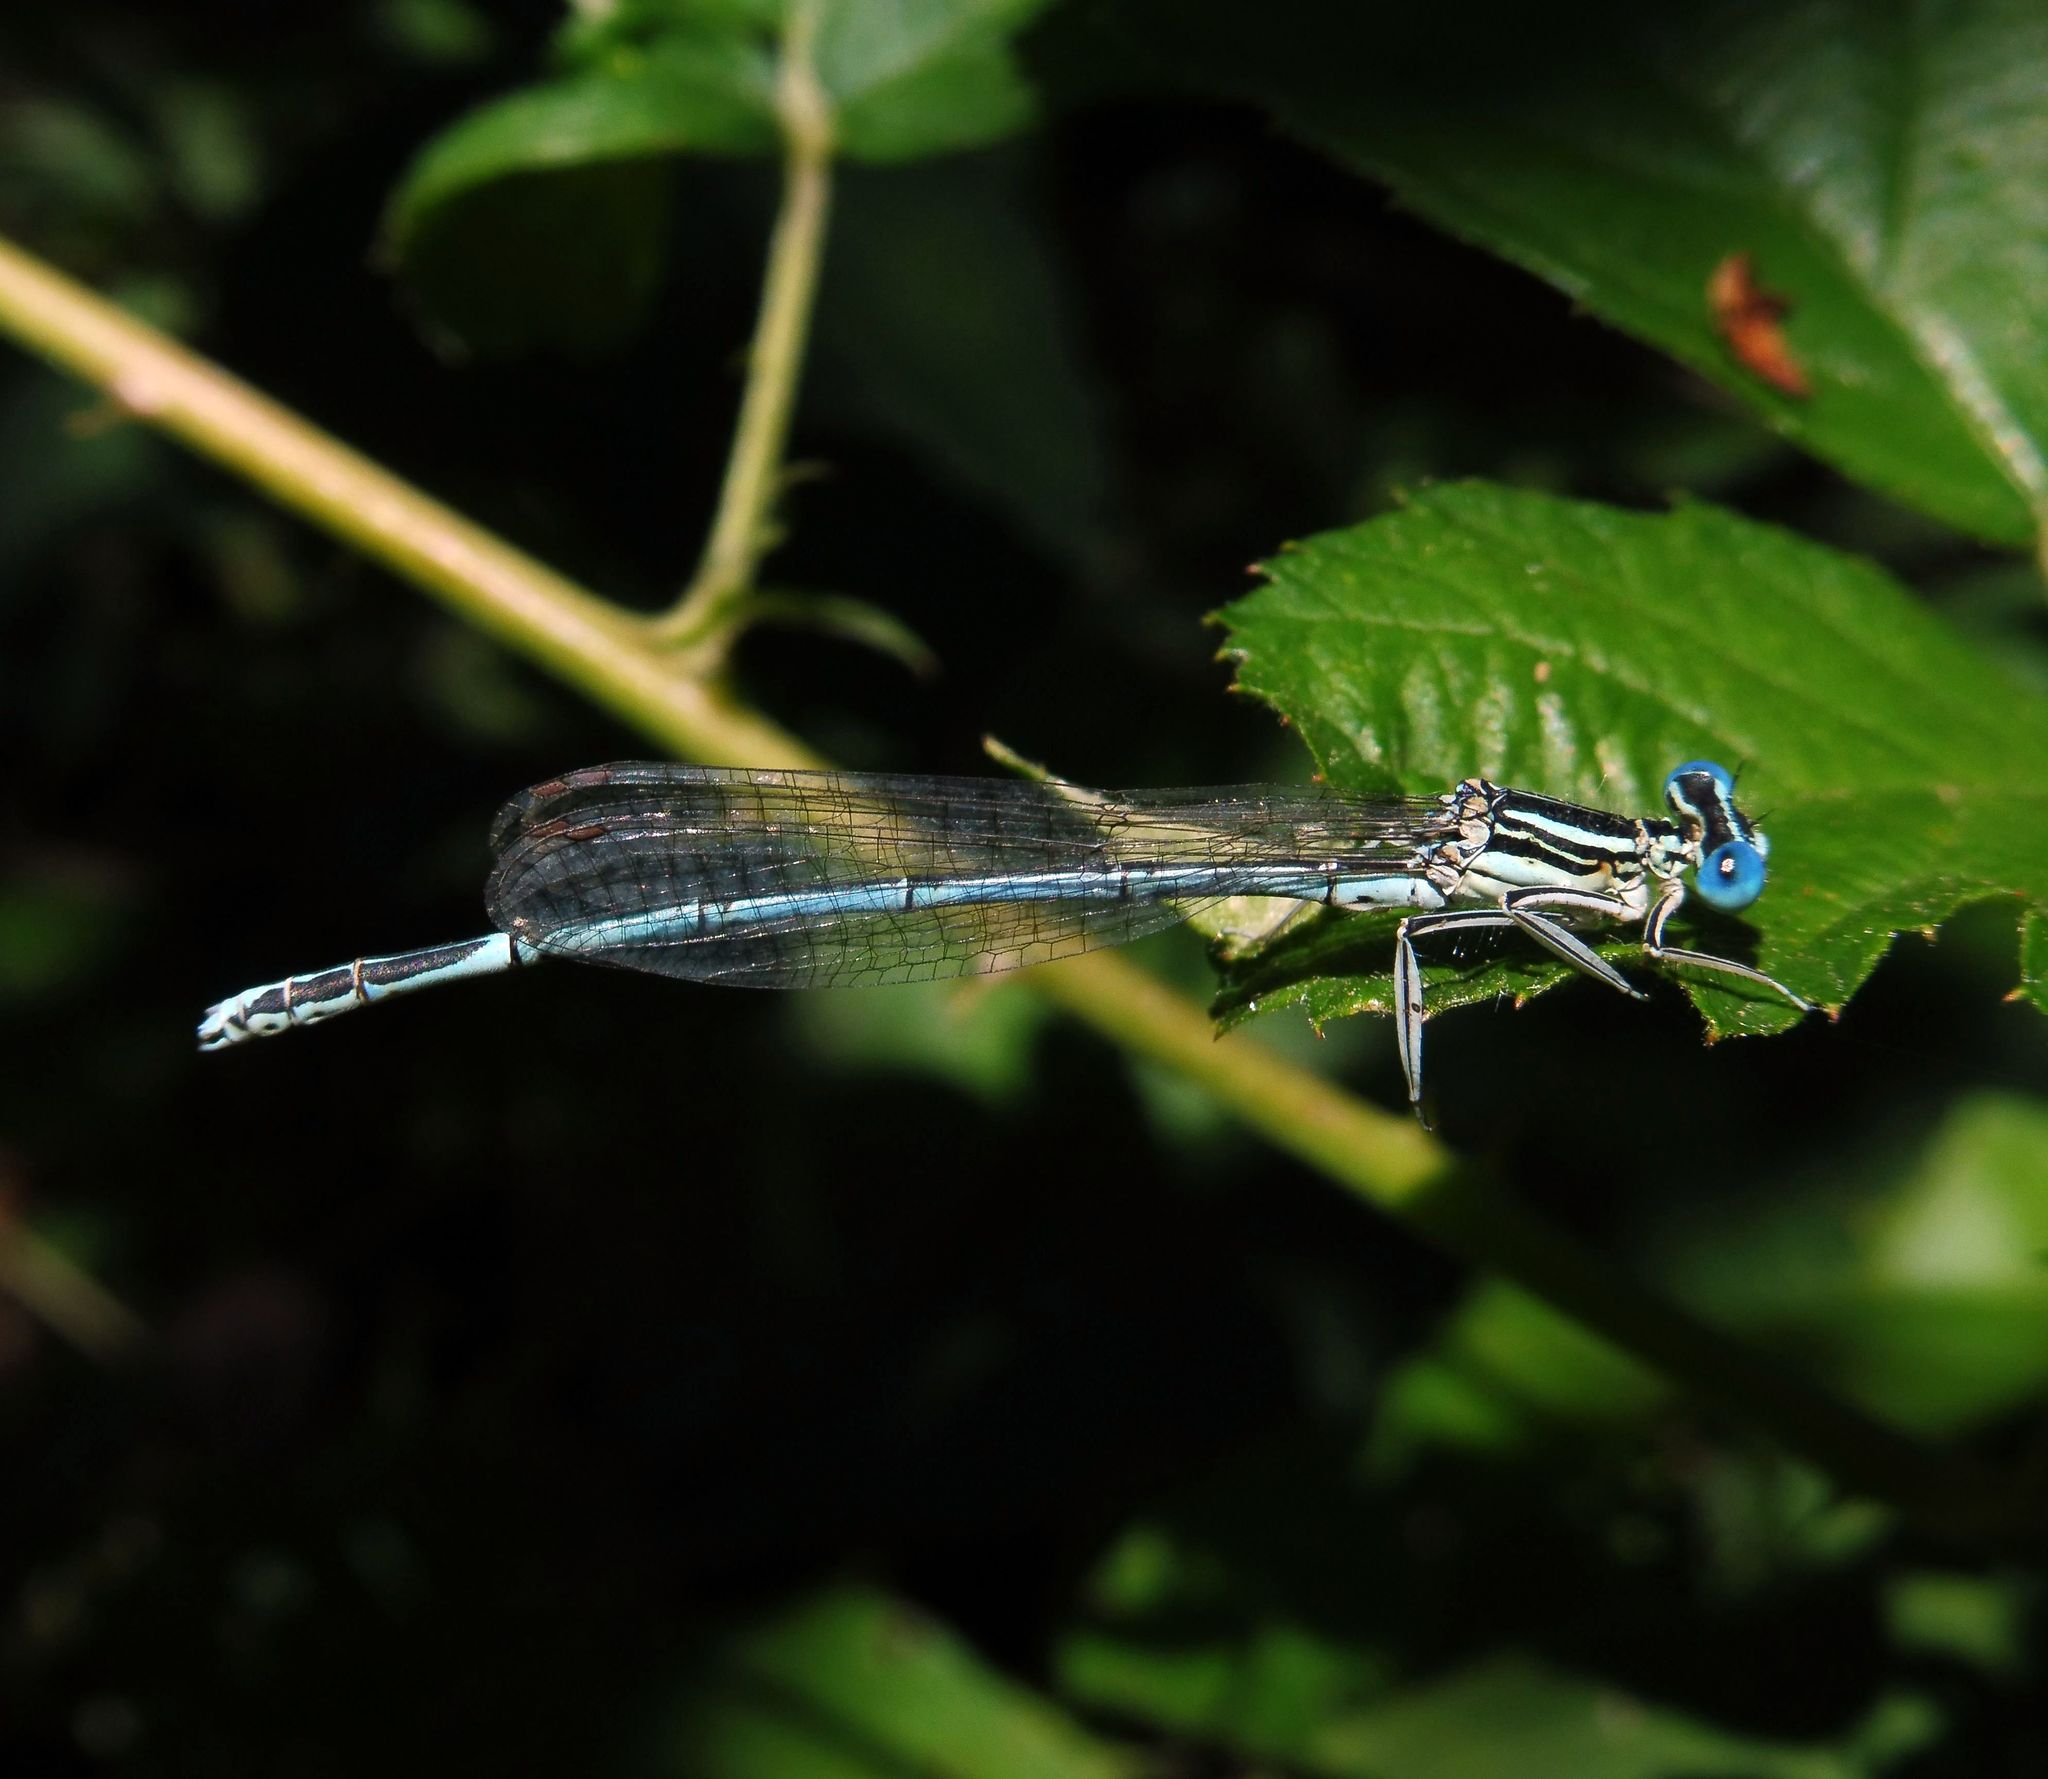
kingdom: Animalia
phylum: Arthropoda
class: Insecta
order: Odonata
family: Platycnemididae
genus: Platycnemis
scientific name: Platycnemis pennipes
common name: White-legged damselfly
